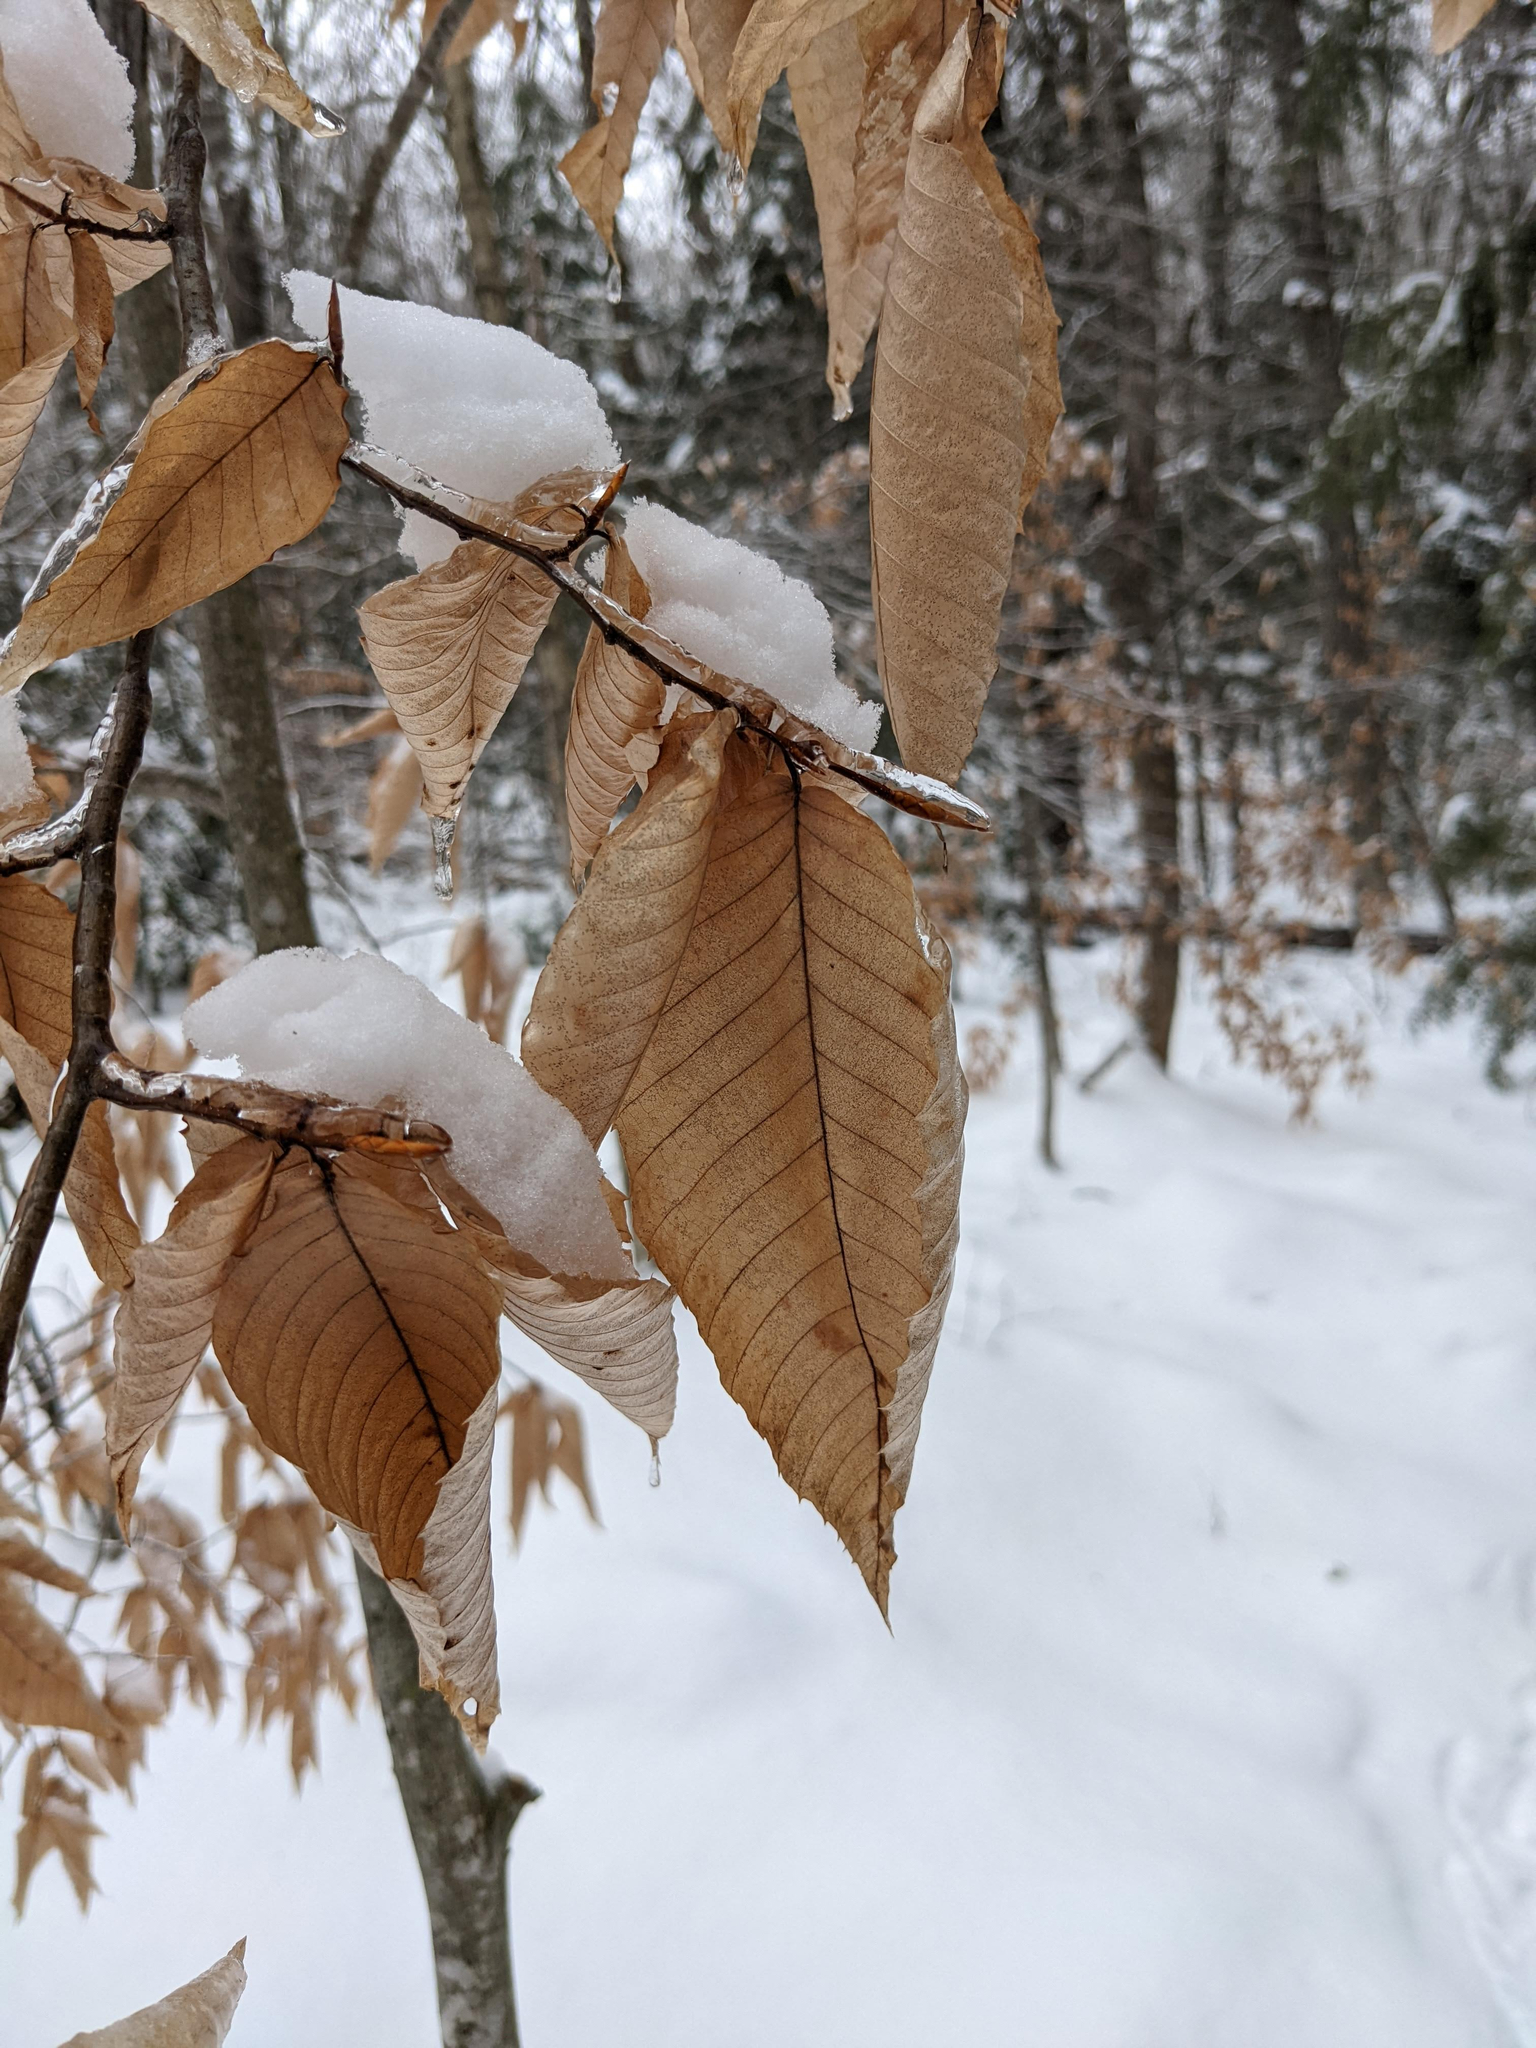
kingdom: Plantae
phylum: Tracheophyta
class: Magnoliopsida
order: Fagales
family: Fagaceae
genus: Fagus
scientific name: Fagus grandifolia
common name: American beech
